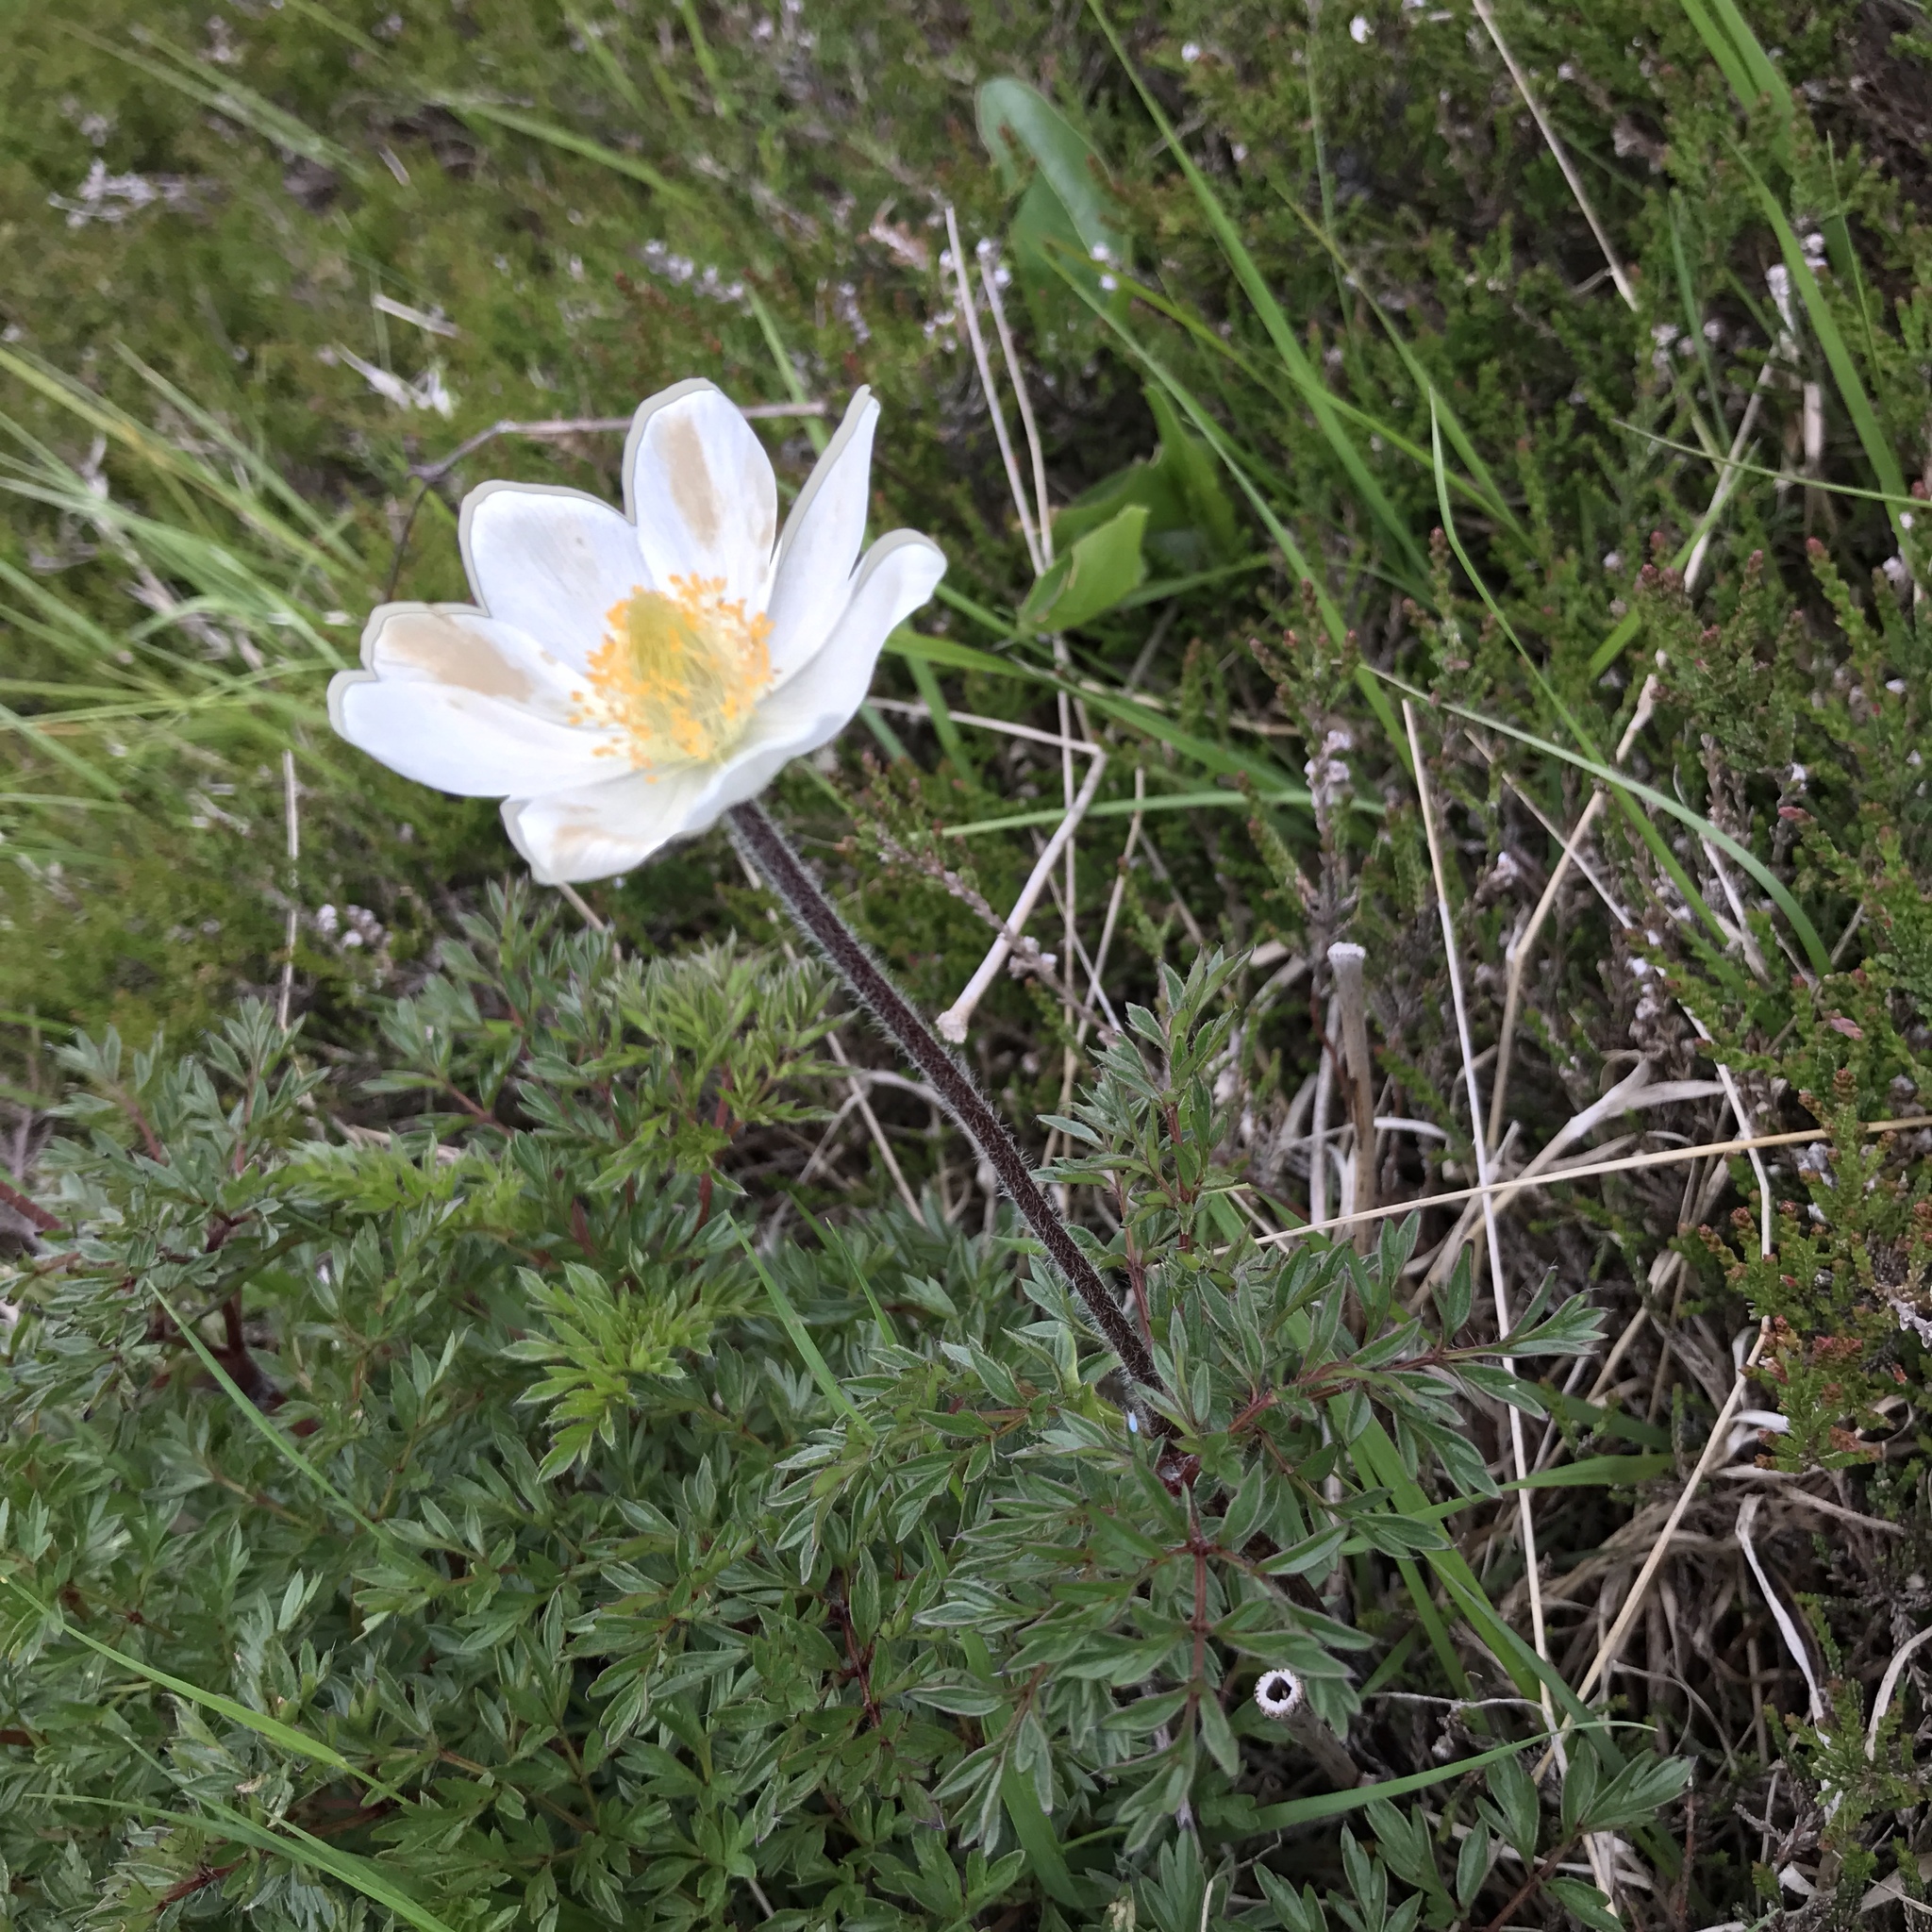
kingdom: Plantae
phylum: Tracheophyta
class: Magnoliopsida
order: Ranunculales
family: Ranunculaceae
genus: Pulsatilla
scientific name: Pulsatilla alpina
